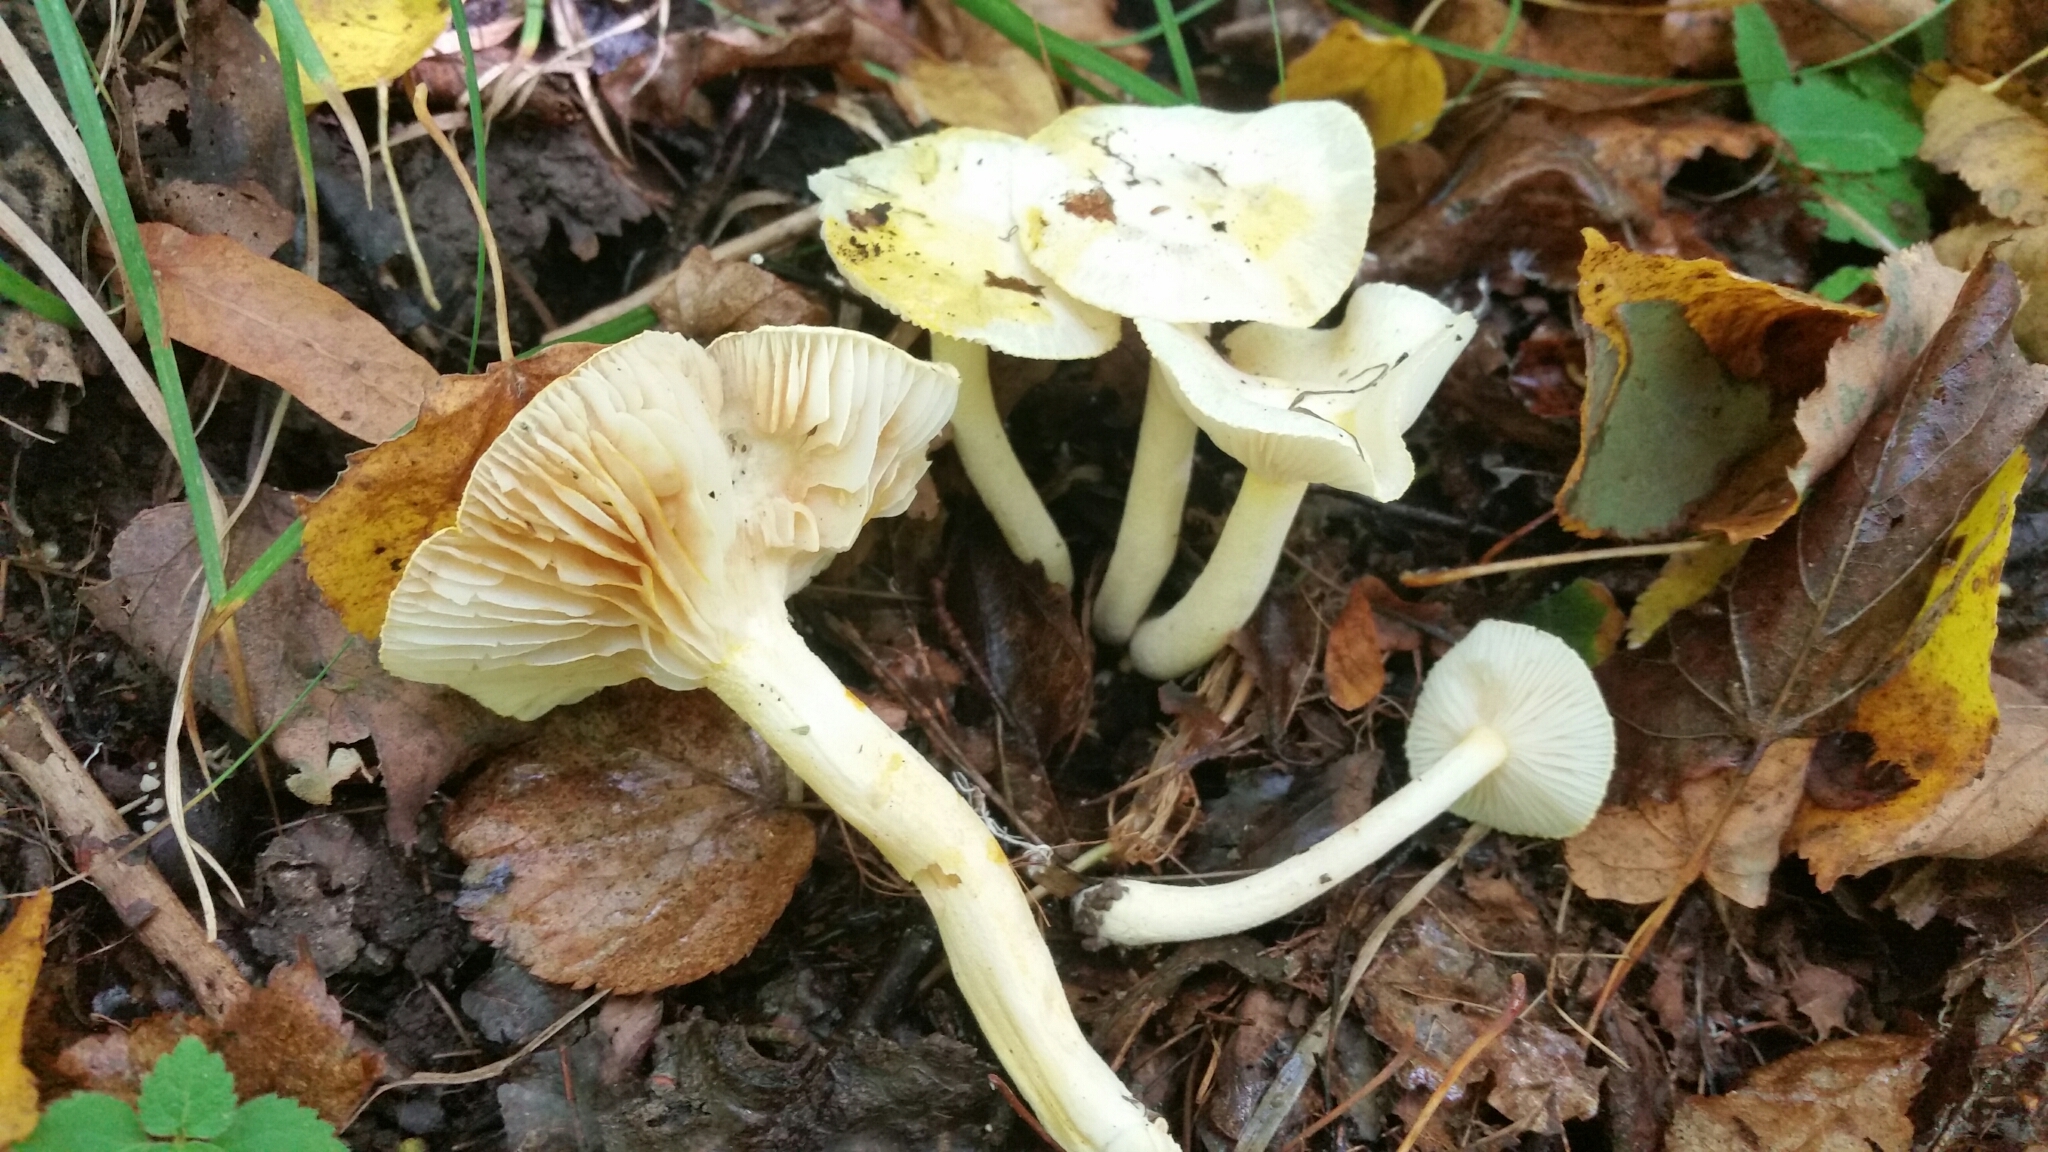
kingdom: Fungi
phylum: Basidiomycota
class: Agaricomycetes
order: Agaricales
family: Hygrophoraceae
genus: Hygrophorus
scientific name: Hygrophorus chrysodon
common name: Gold flecked woodwax
